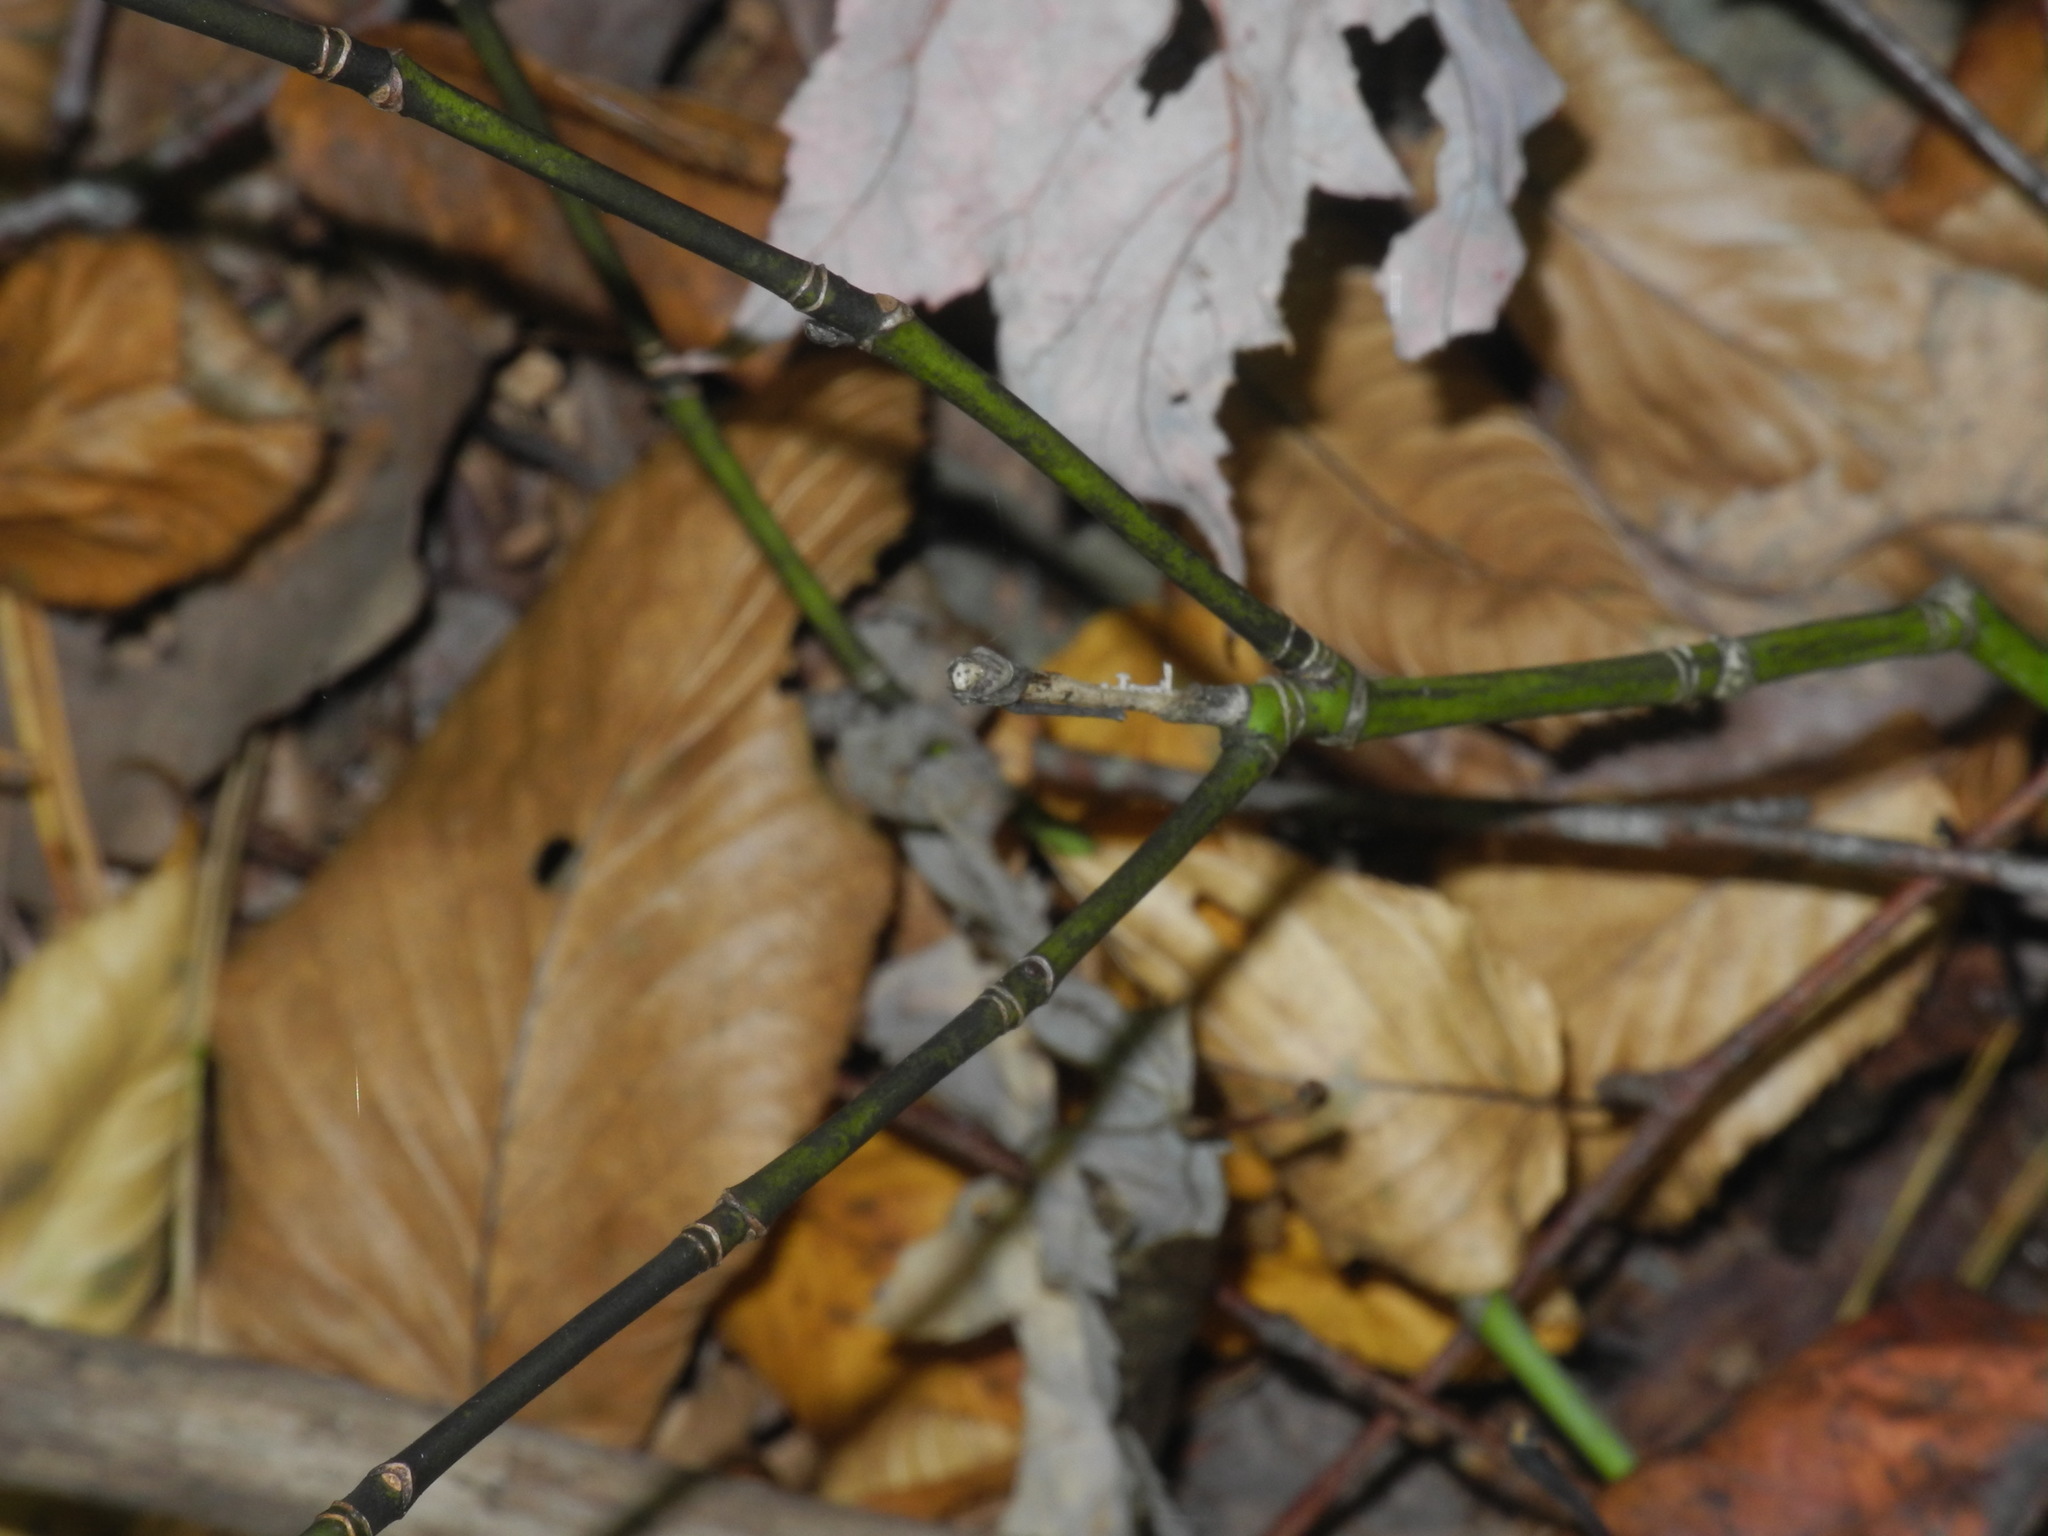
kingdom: Plantae
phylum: Tracheophyta
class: Magnoliopsida
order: Sapindales
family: Sapindaceae
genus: Acer
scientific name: Acer pensylvanicum
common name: Moosewood
